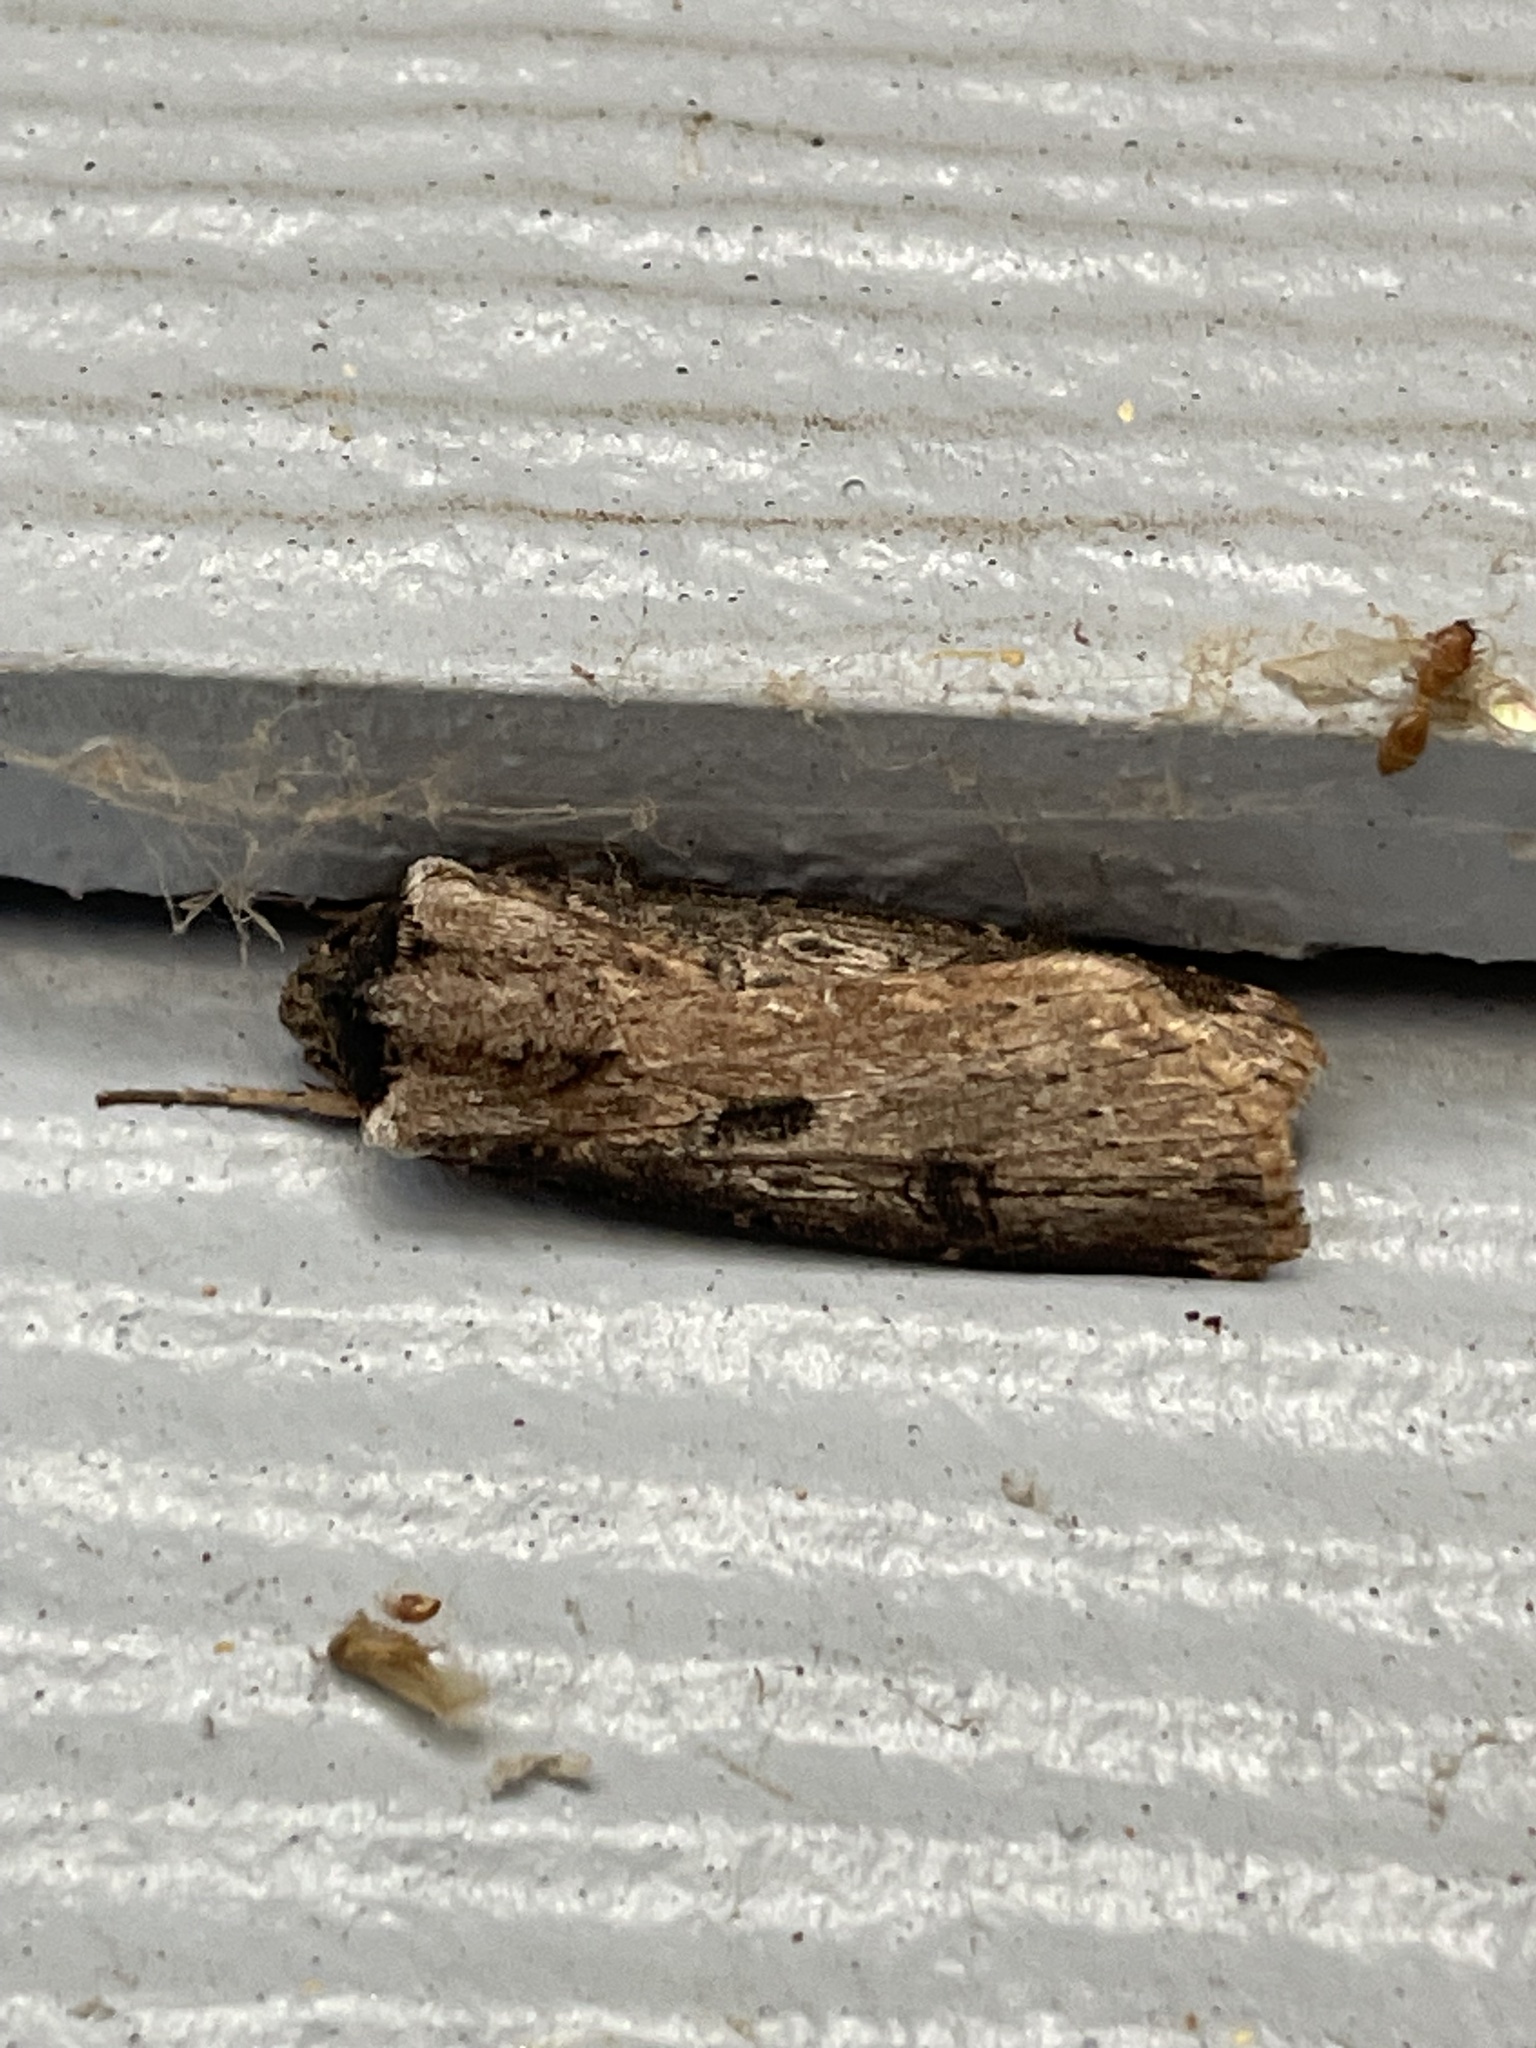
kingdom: Animalia
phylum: Arthropoda
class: Insecta
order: Lepidoptera
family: Noctuidae
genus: Agrotis
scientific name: Agrotis malefida
